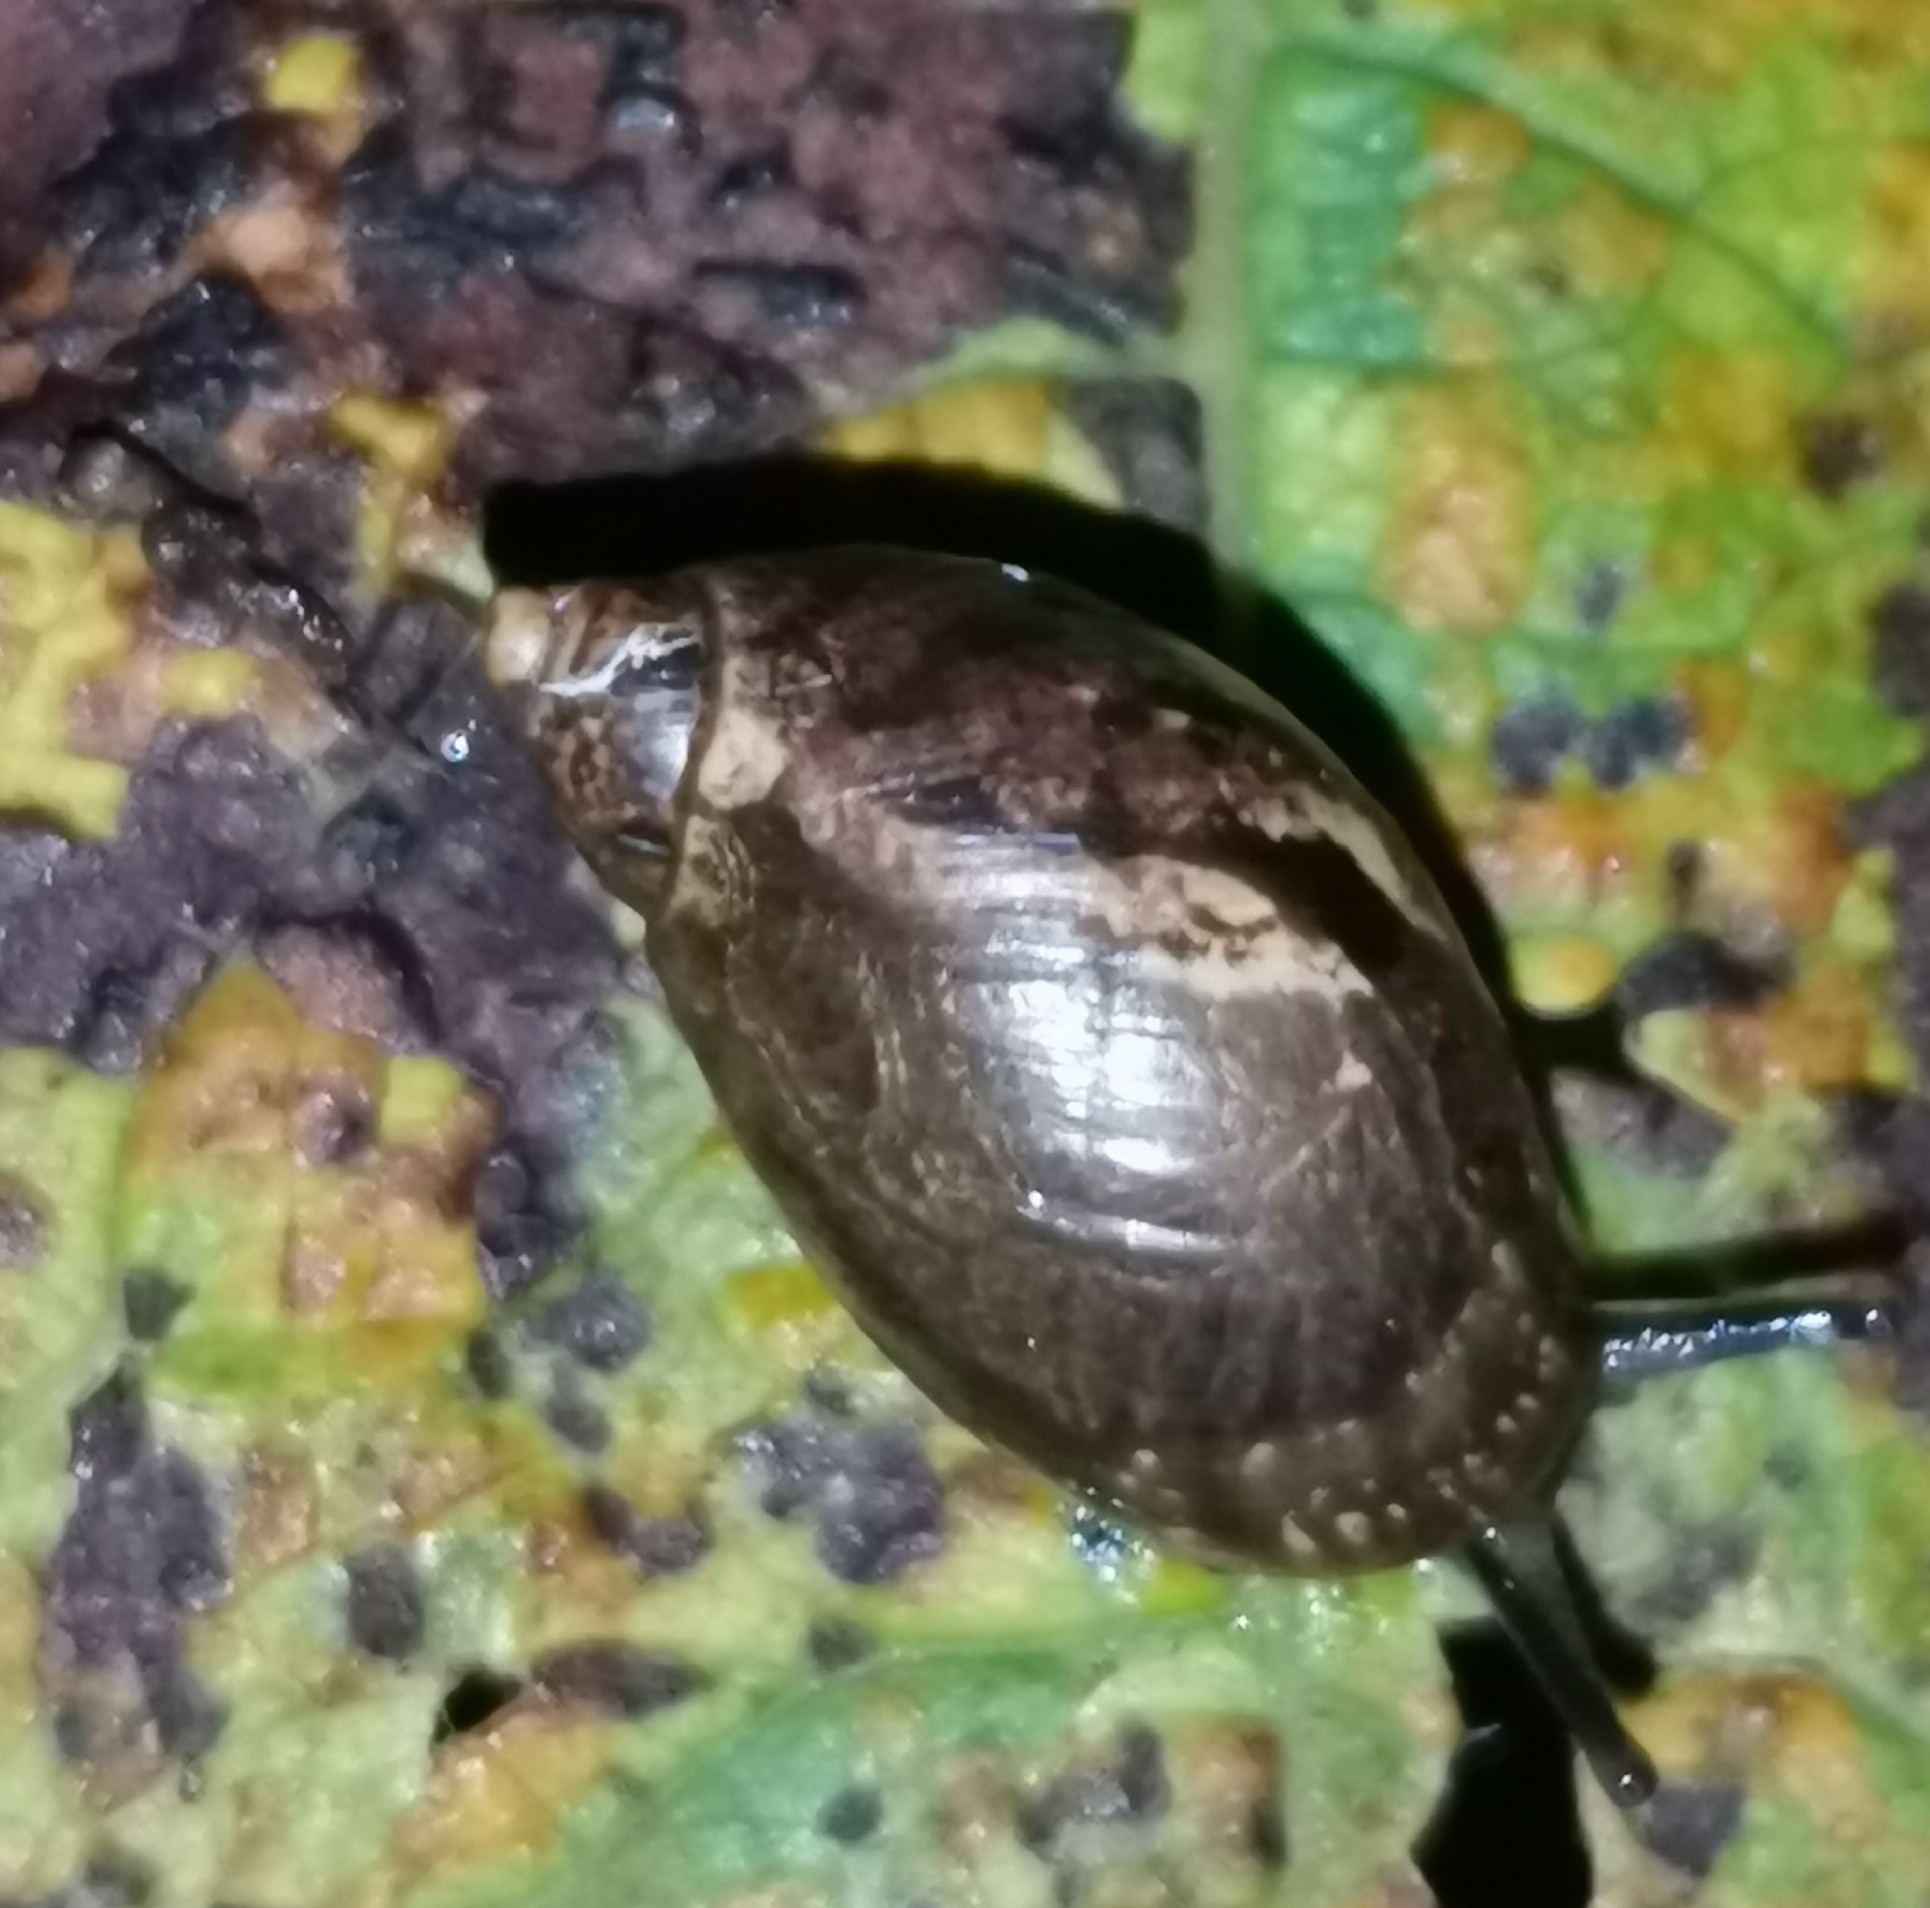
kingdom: Animalia
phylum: Mollusca
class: Gastropoda
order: Stylommatophora
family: Succineidae
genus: Succinea
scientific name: Succinea putris
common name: European ambersnail
